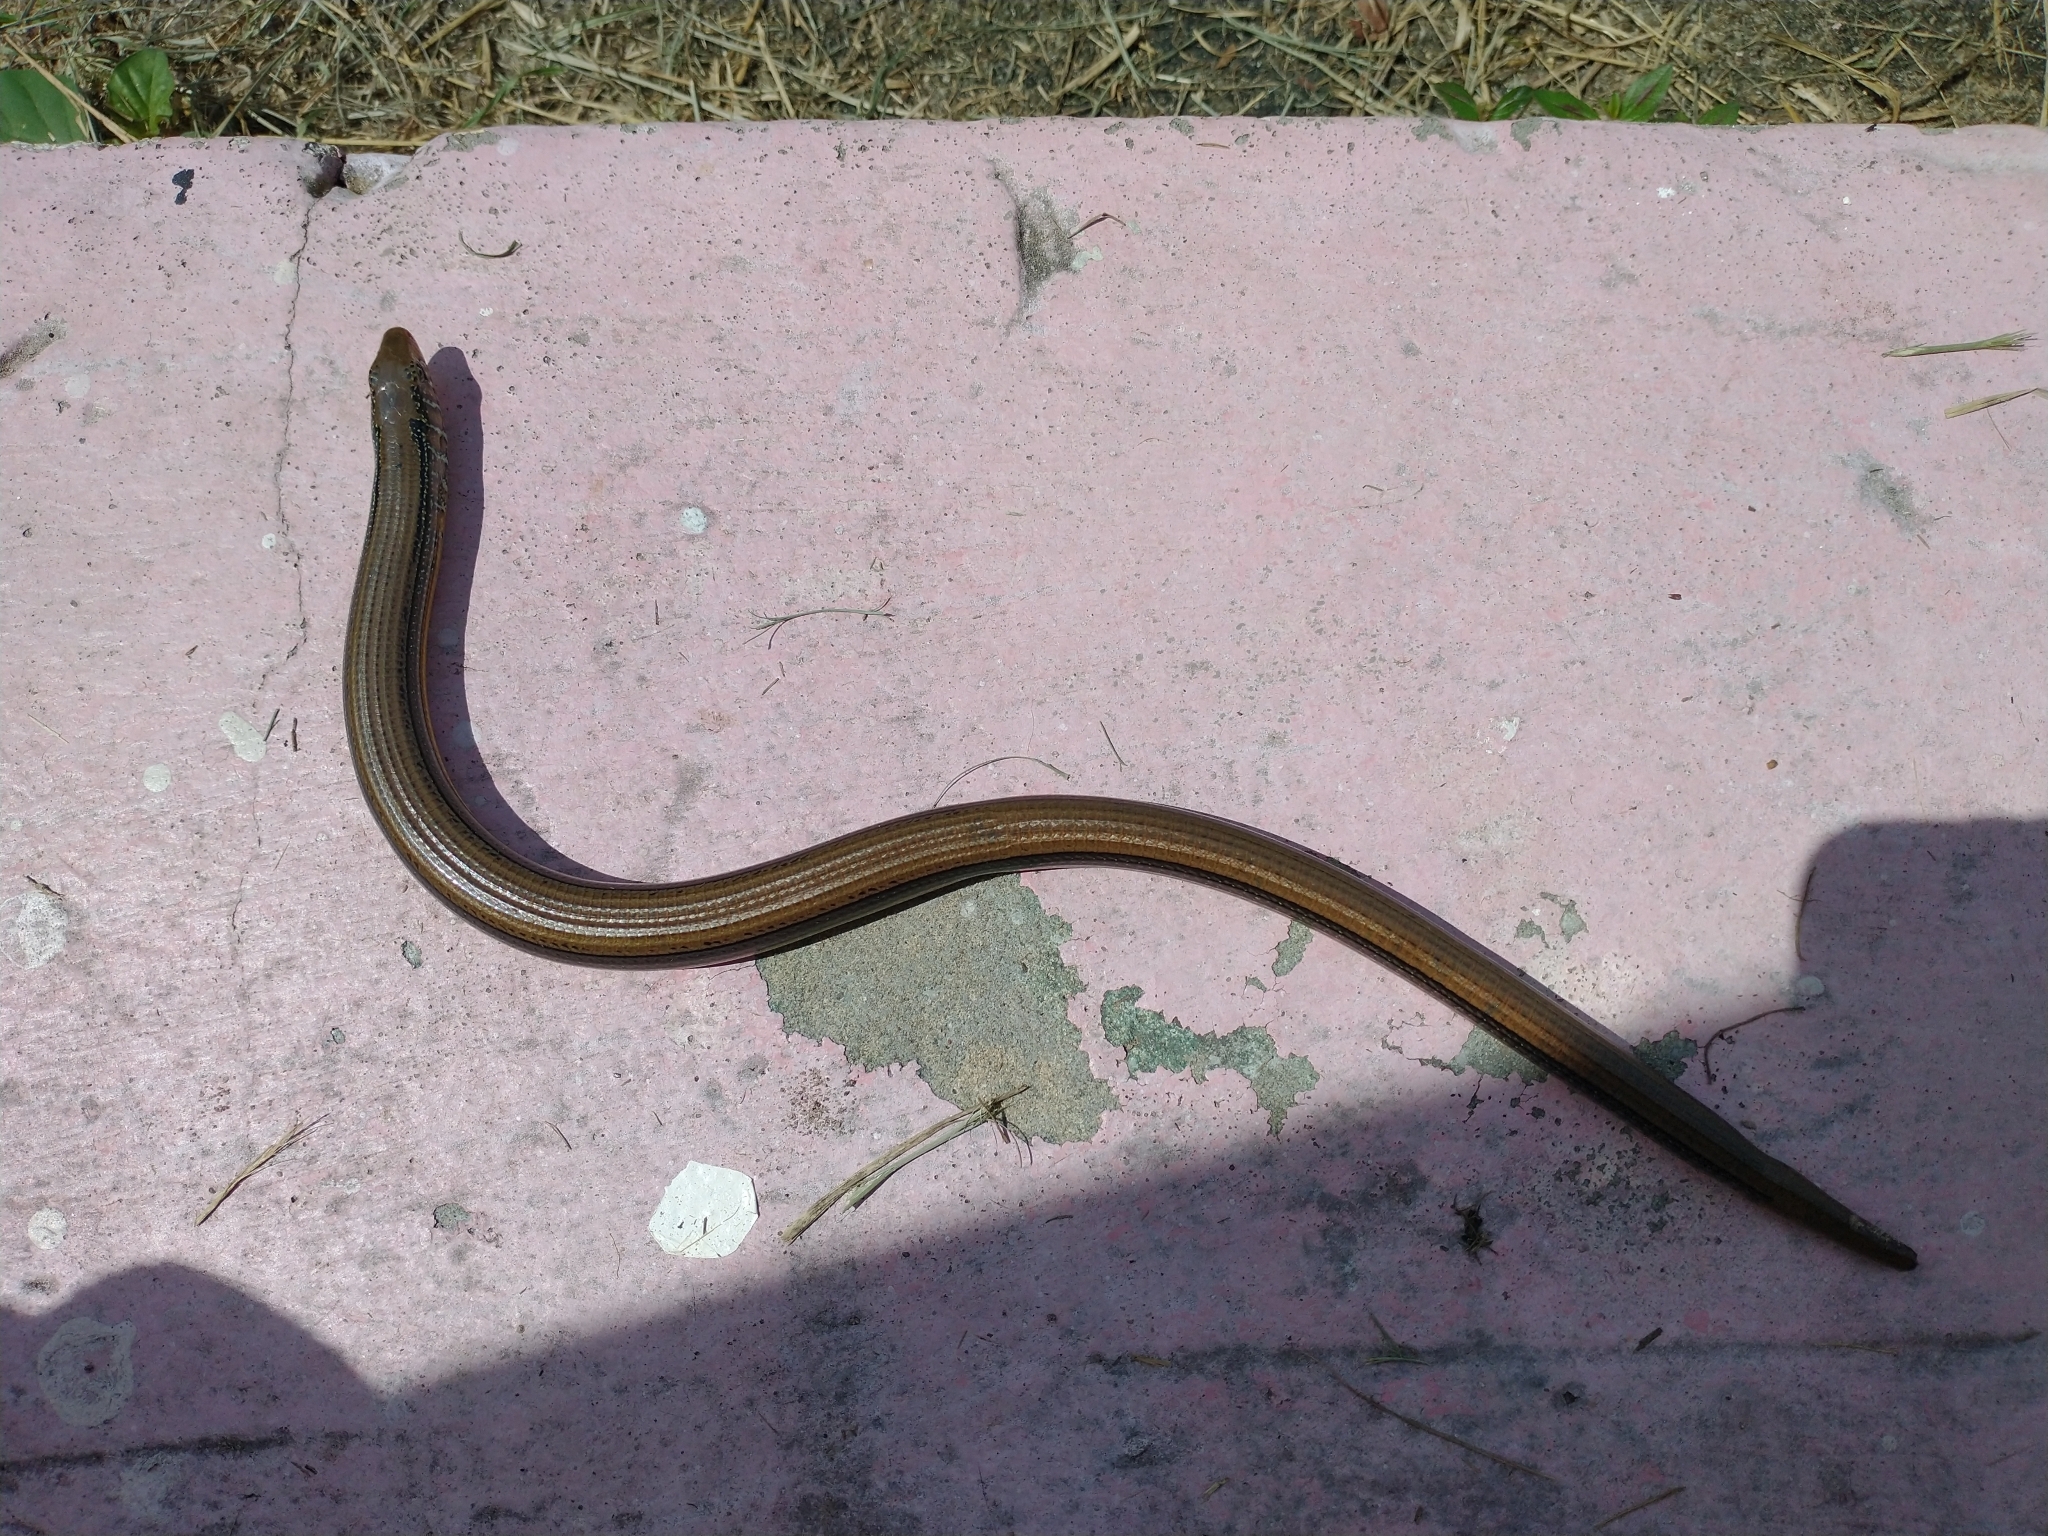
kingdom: Animalia
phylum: Chordata
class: Squamata
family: Anguidae
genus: Ophisaurus
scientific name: Ophisaurus ventralis
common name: Eastern glass lizard
